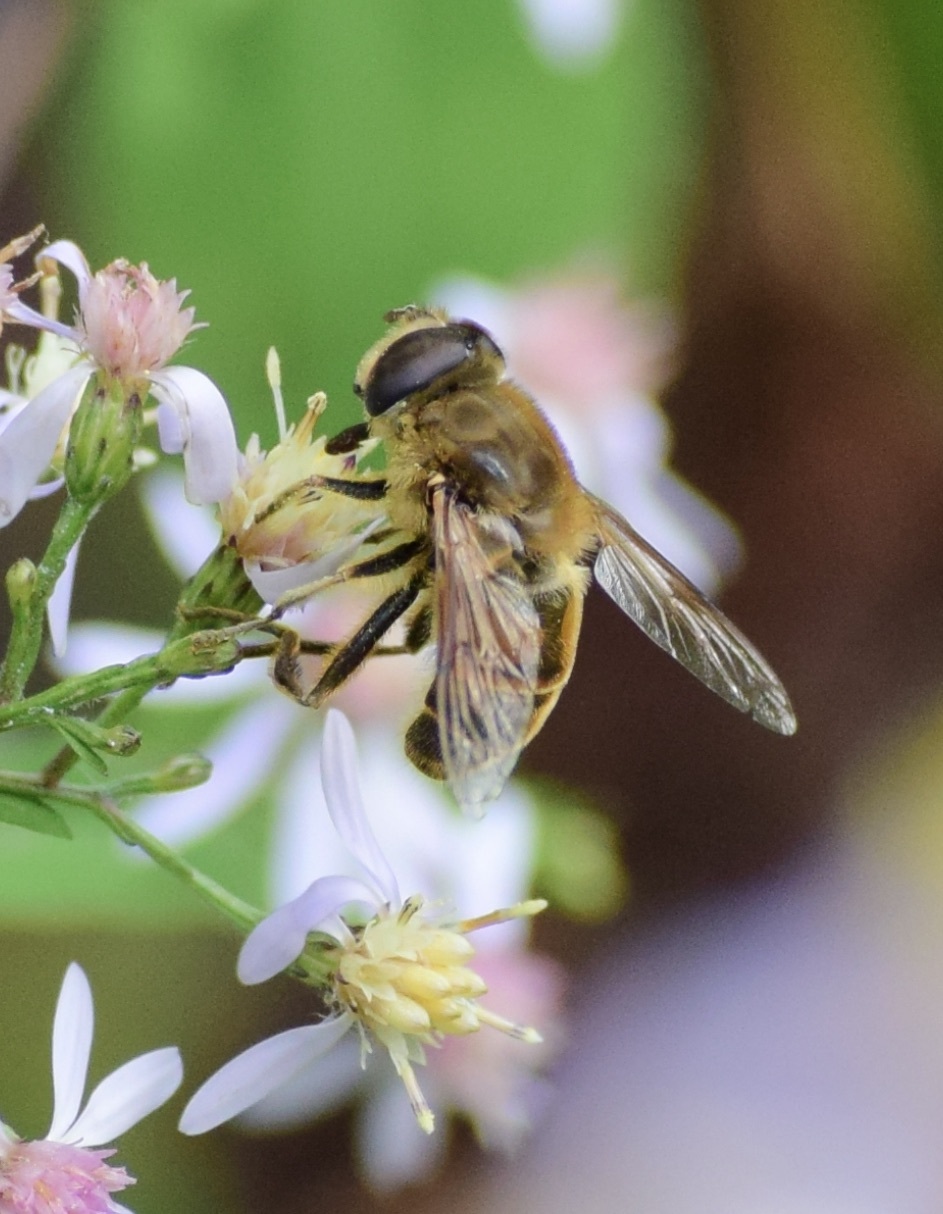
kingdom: Animalia
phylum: Arthropoda
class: Insecta
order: Diptera
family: Syrphidae
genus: Eristalis
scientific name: Eristalis tenax
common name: Drone fly
